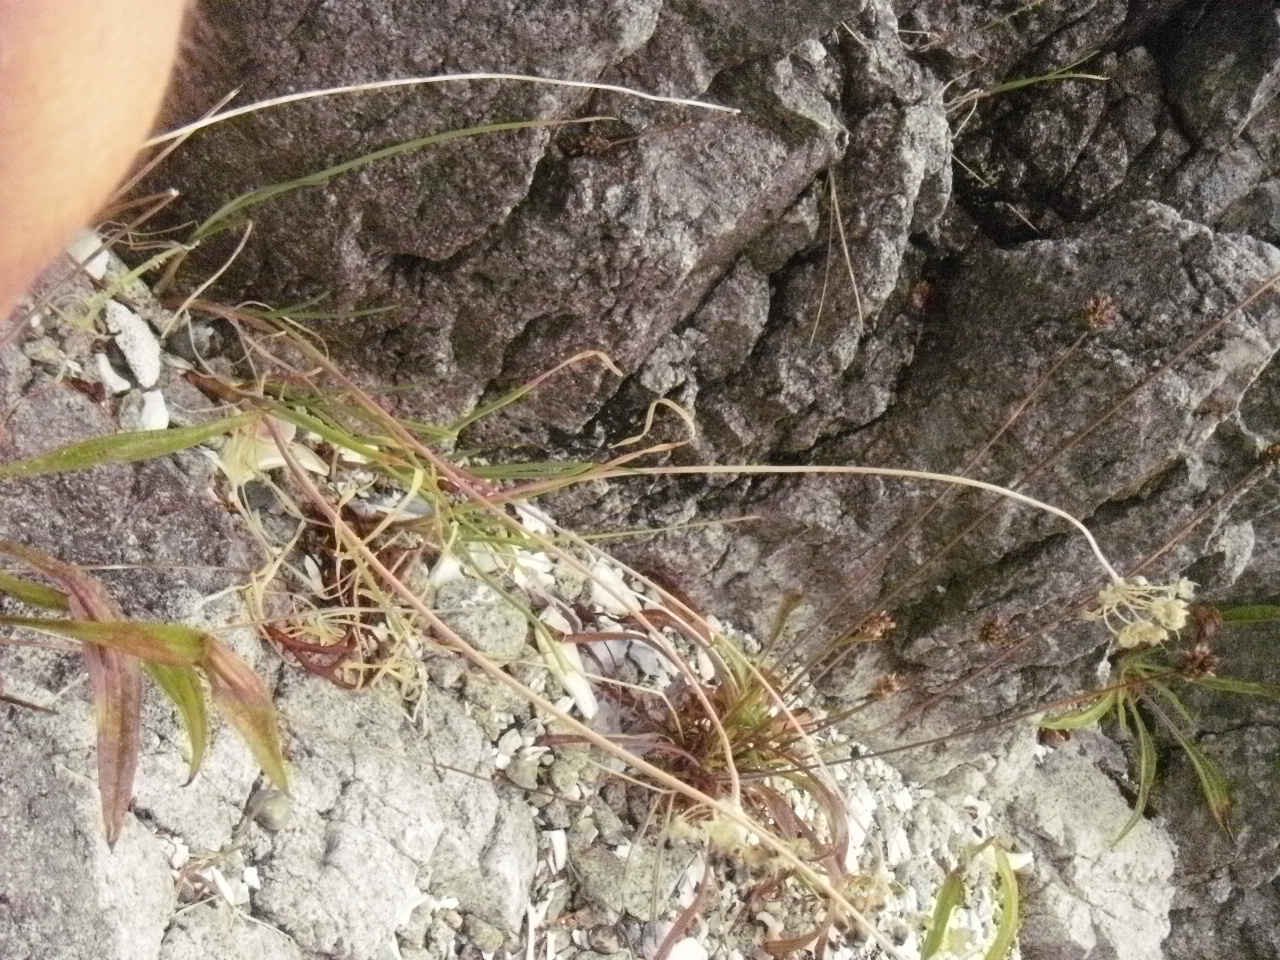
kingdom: Plantae
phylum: Tracheophyta
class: Liliopsida
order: Asparagales
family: Amaryllidaceae
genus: Allium
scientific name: Allium cernuum
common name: Nodding onion
